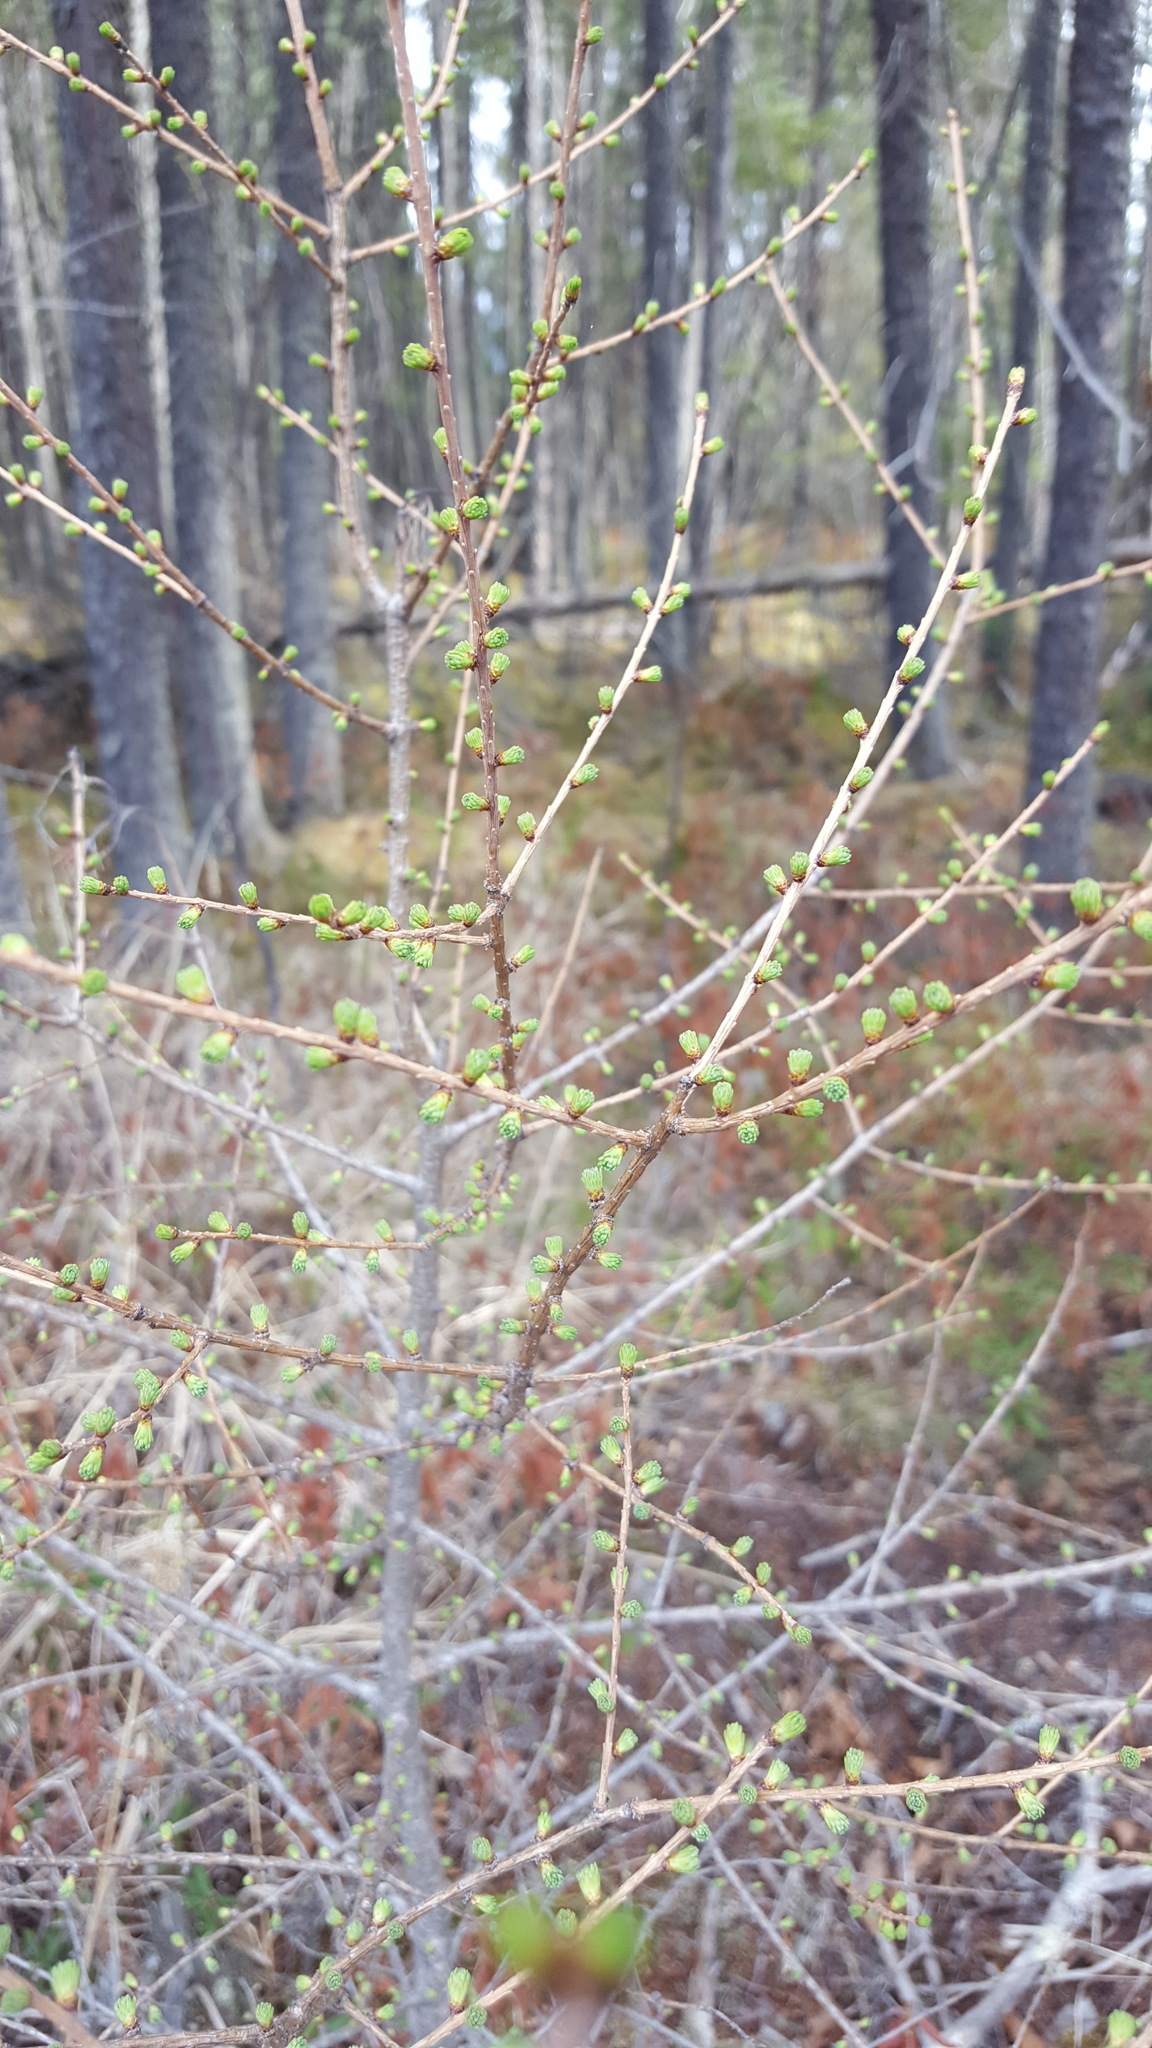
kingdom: Plantae
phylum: Tracheophyta
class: Pinopsida
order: Pinales
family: Pinaceae
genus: Larix
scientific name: Larix laricina
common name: American larch
